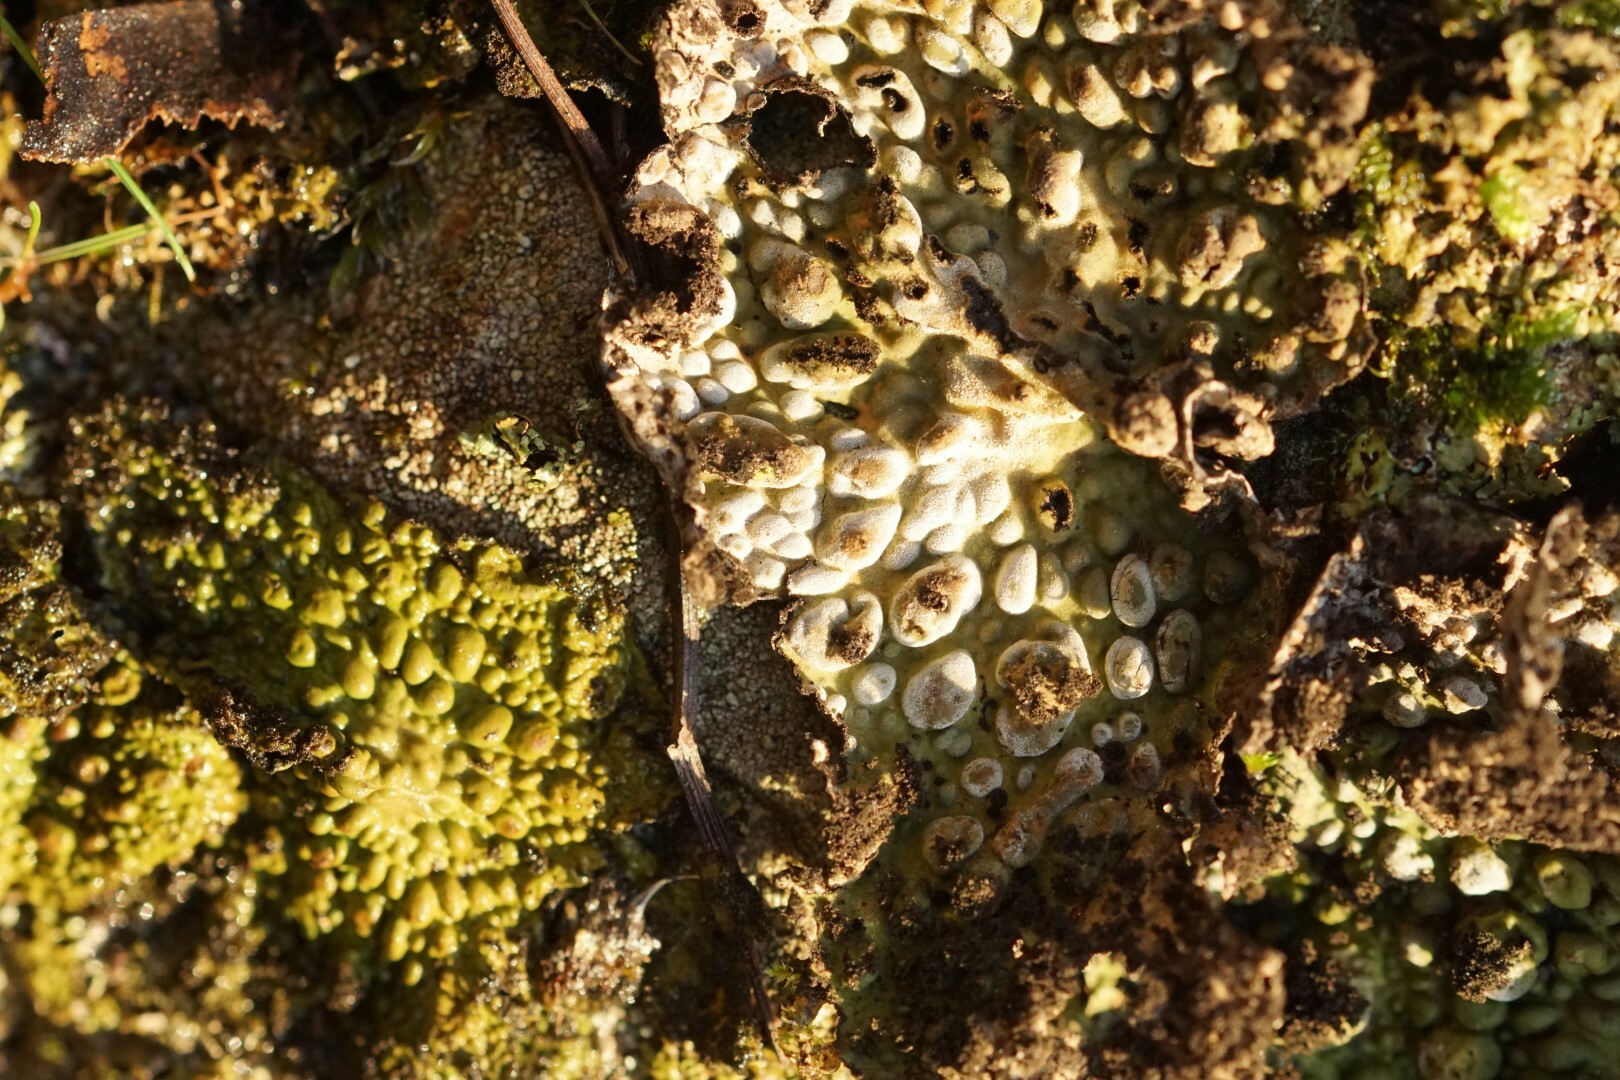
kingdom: Fungi
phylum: Ascomycota
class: Lecanoromycetes
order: Umbilicariales
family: Umbilicariaceae
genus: Lasallia
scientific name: Lasallia pustulata
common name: Blistered toadskin lichen
